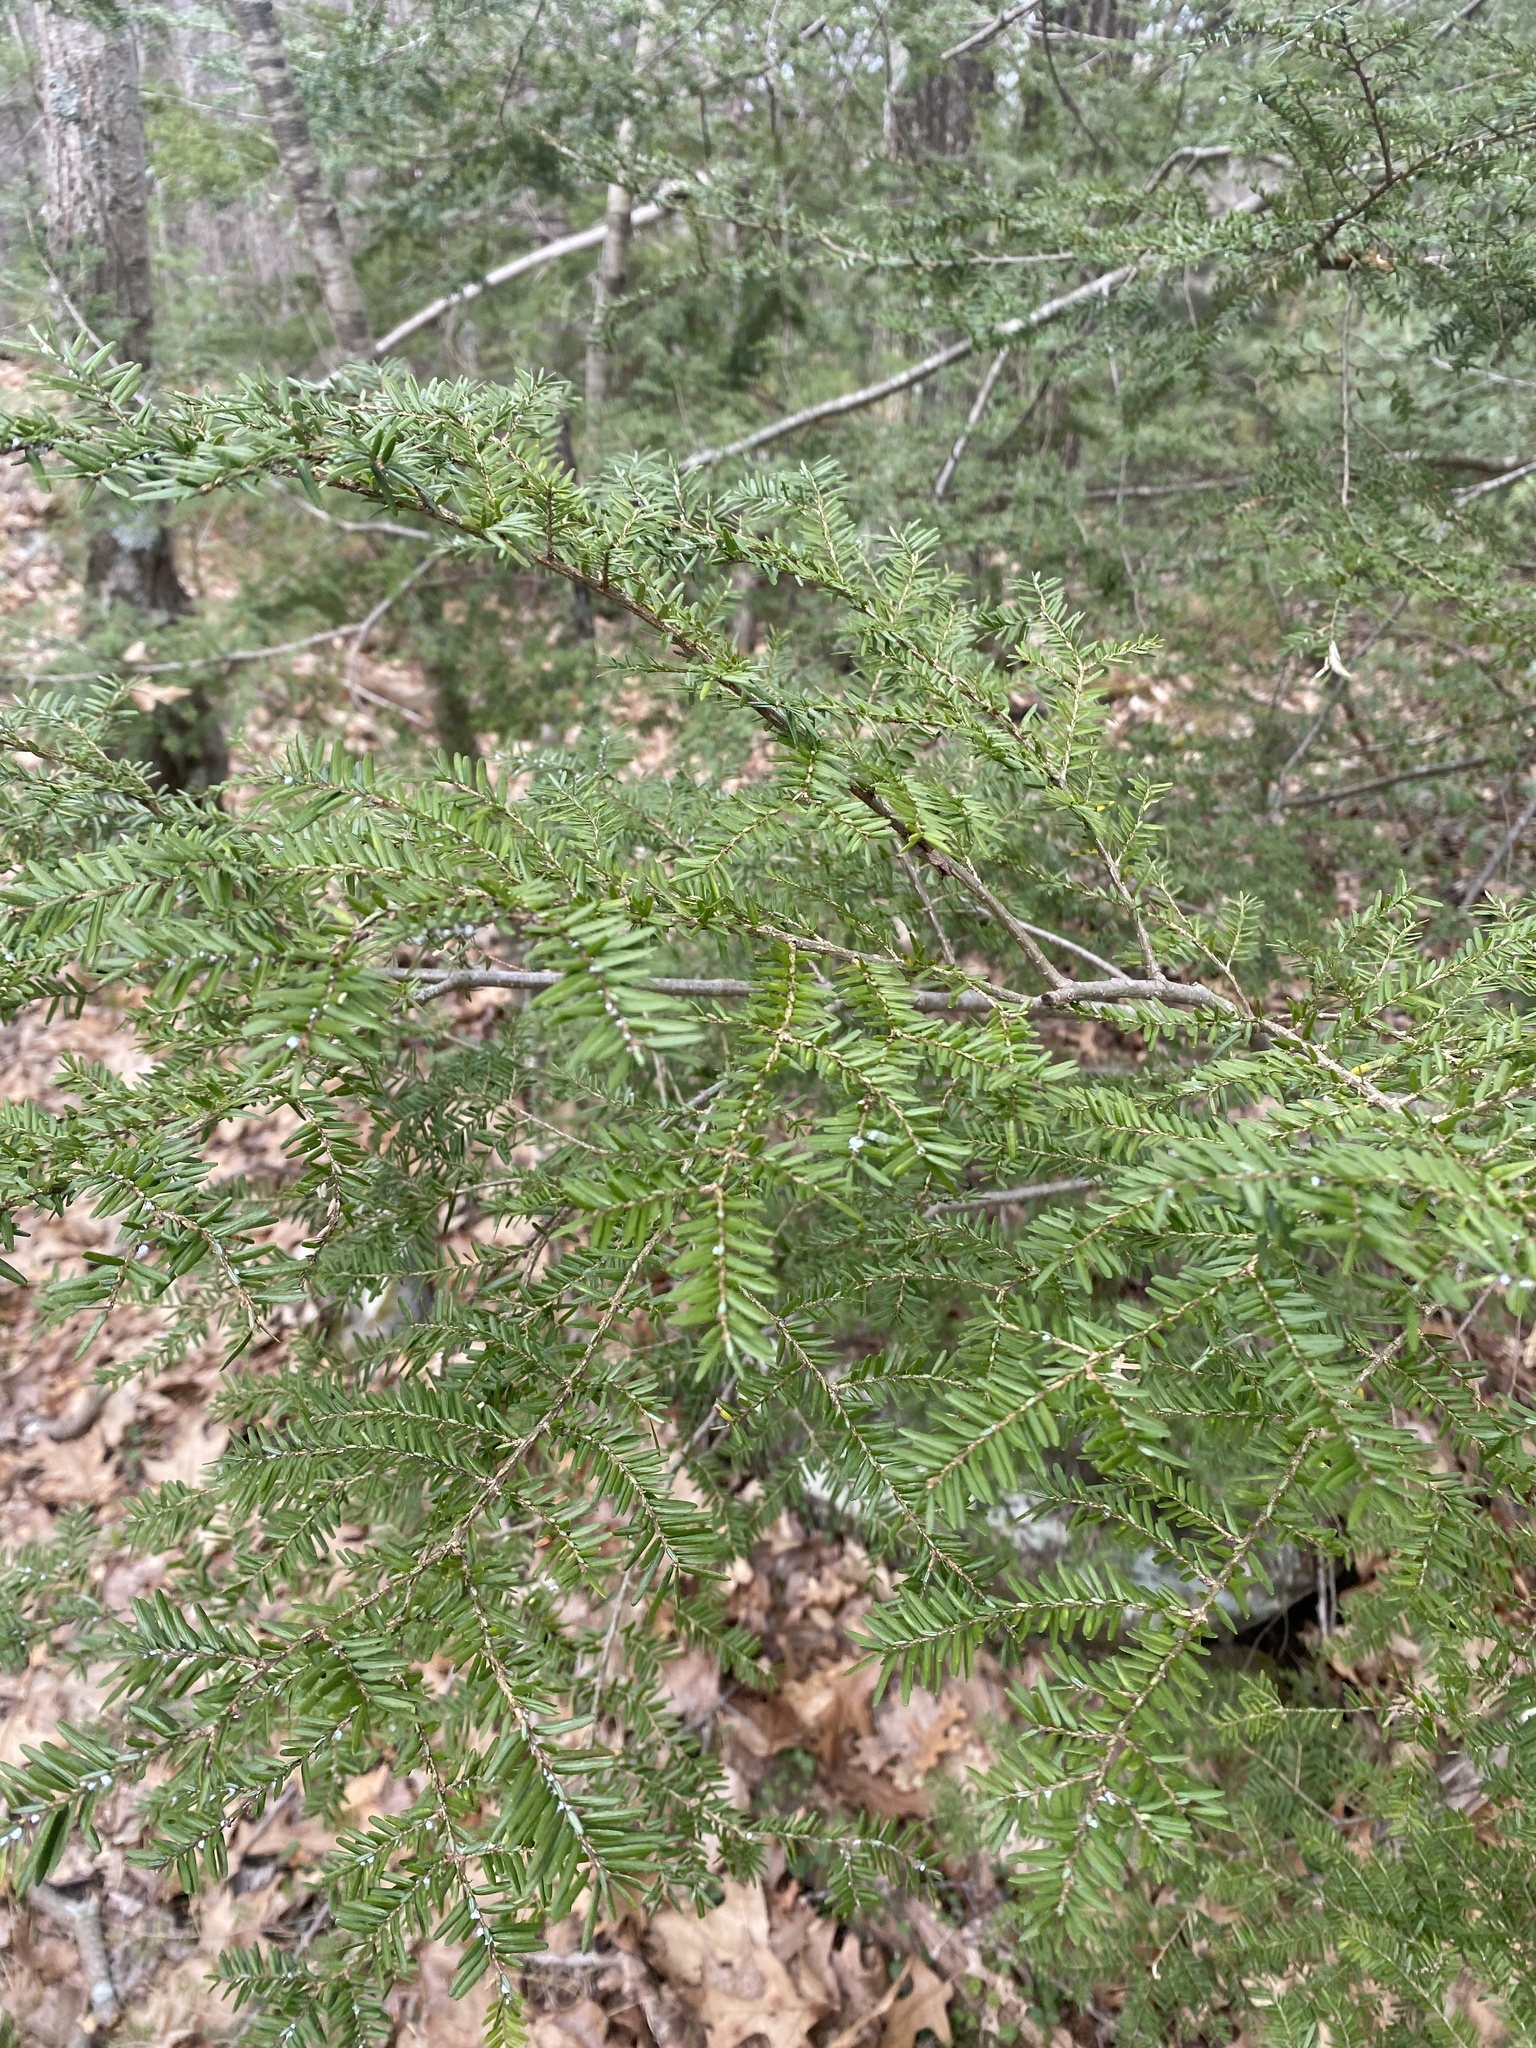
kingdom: Plantae
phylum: Tracheophyta
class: Pinopsida
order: Pinales
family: Pinaceae
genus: Tsuga
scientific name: Tsuga canadensis
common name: Eastern hemlock
